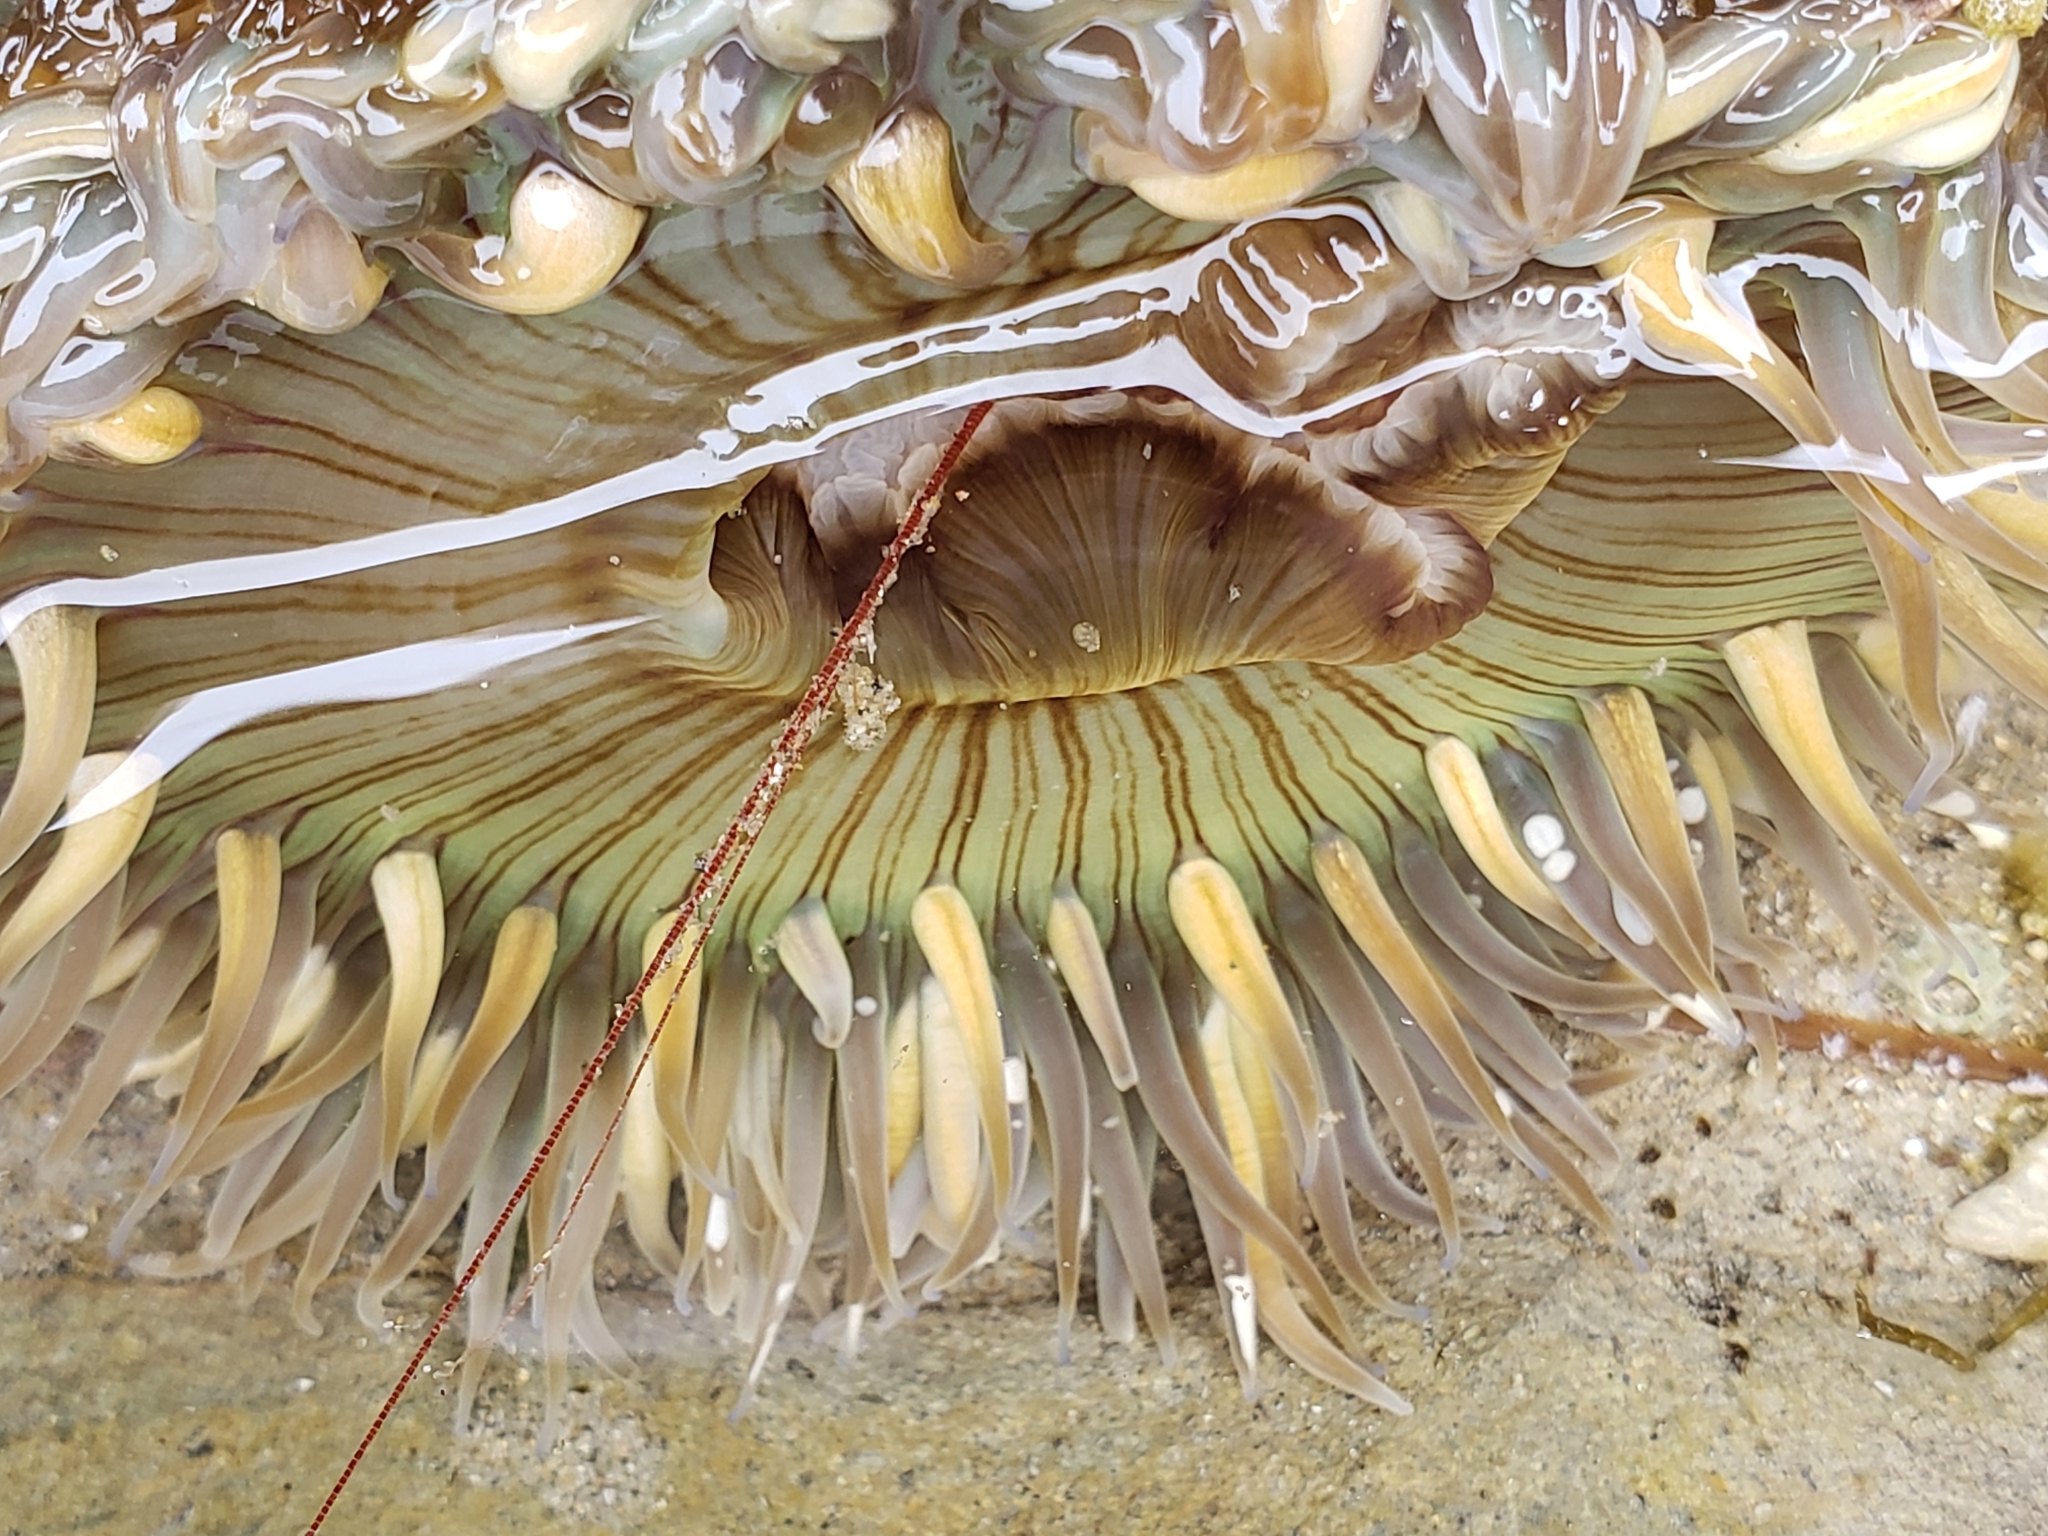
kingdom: Animalia
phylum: Cnidaria
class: Anthozoa
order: Actiniaria
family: Actiniidae
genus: Anthopleura
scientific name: Anthopleura sola
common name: Sun anemone
